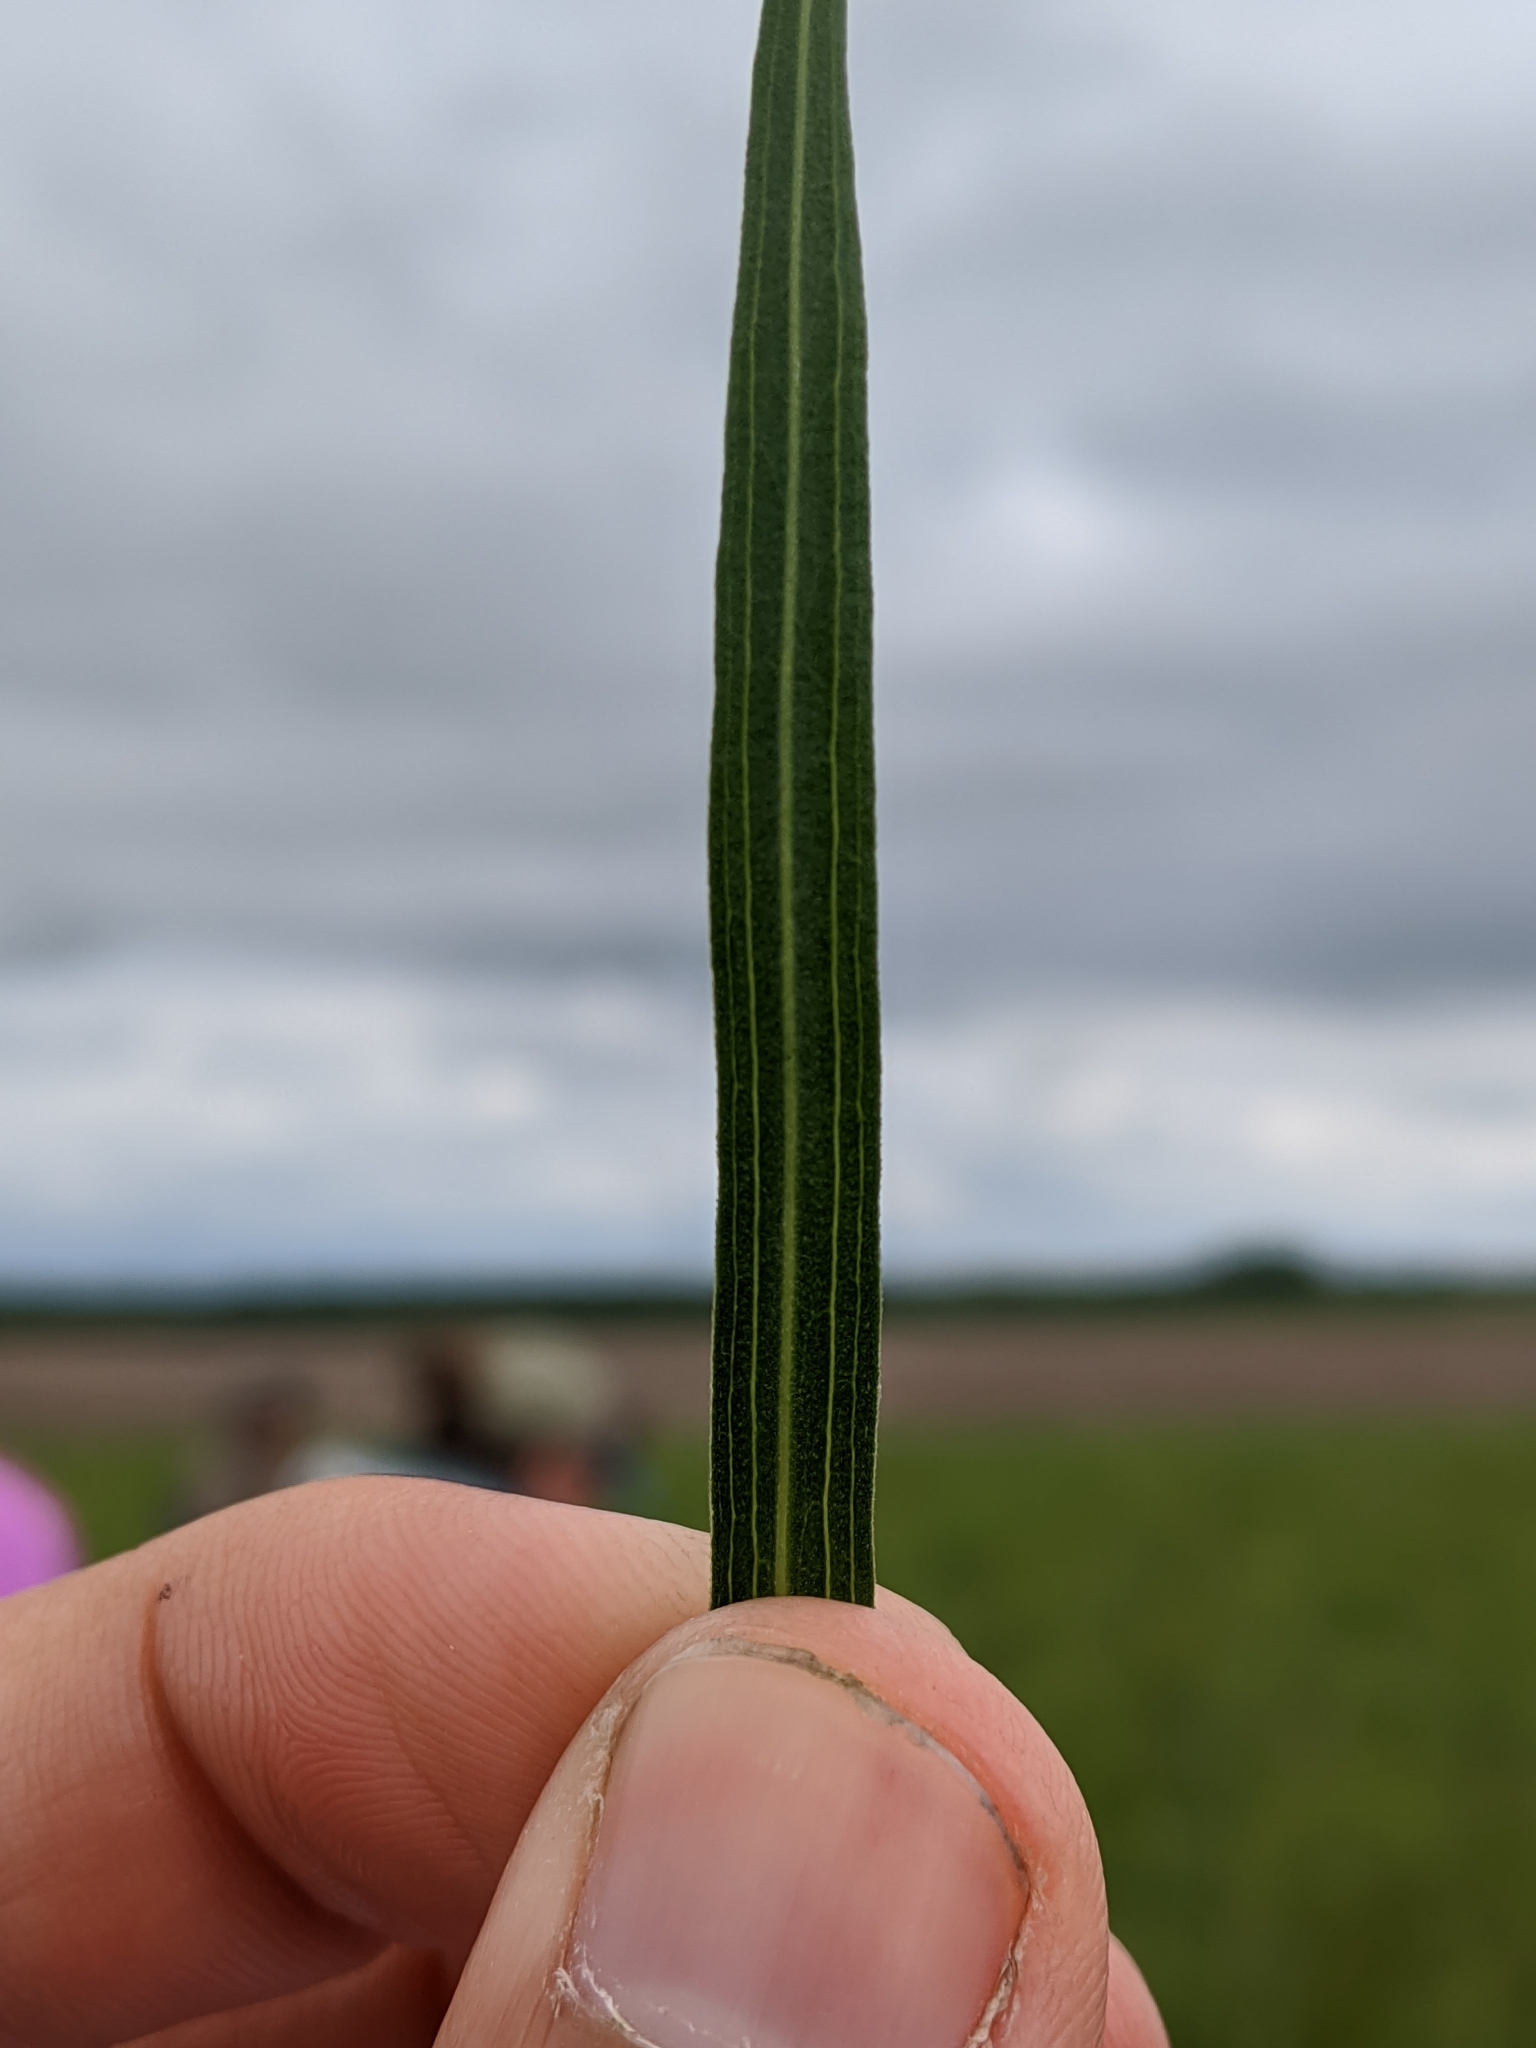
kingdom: Plantae
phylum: Tracheophyta
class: Magnoliopsida
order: Asterales
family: Asteraceae
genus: Euthamia
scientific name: Euthamia gymnospermoides
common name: Great plains goldentop
